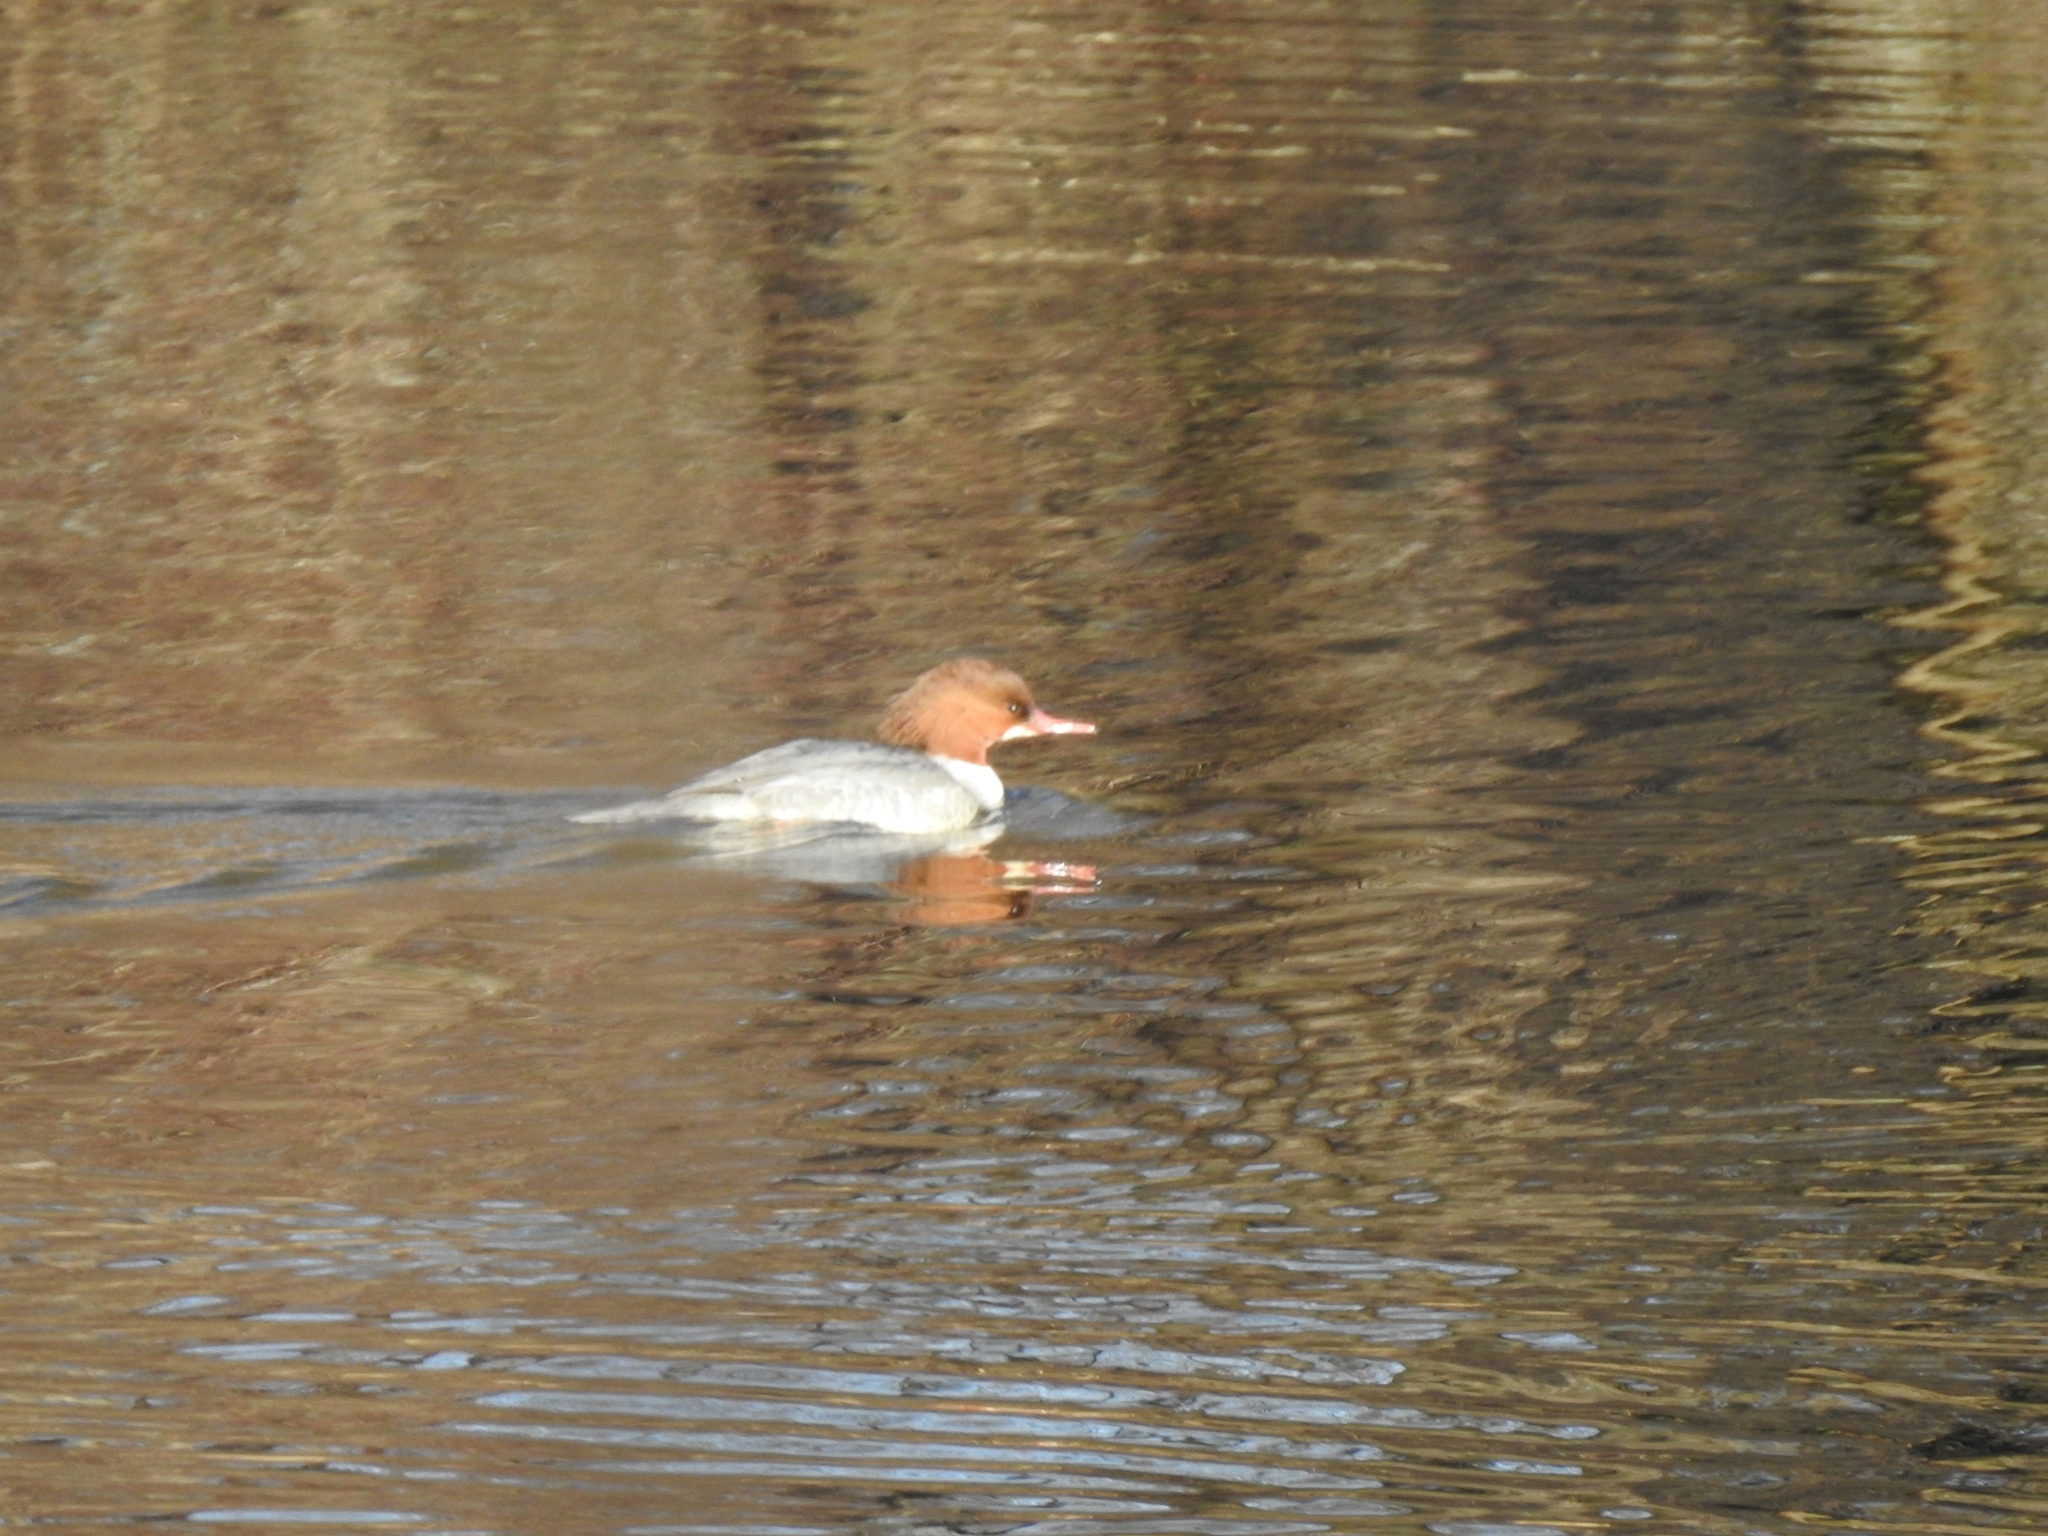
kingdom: Animalia
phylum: Chordata
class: Aves
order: Anseriformes
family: Anatidae
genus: Mergus
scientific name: Mergus merganser
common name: Common merganser
